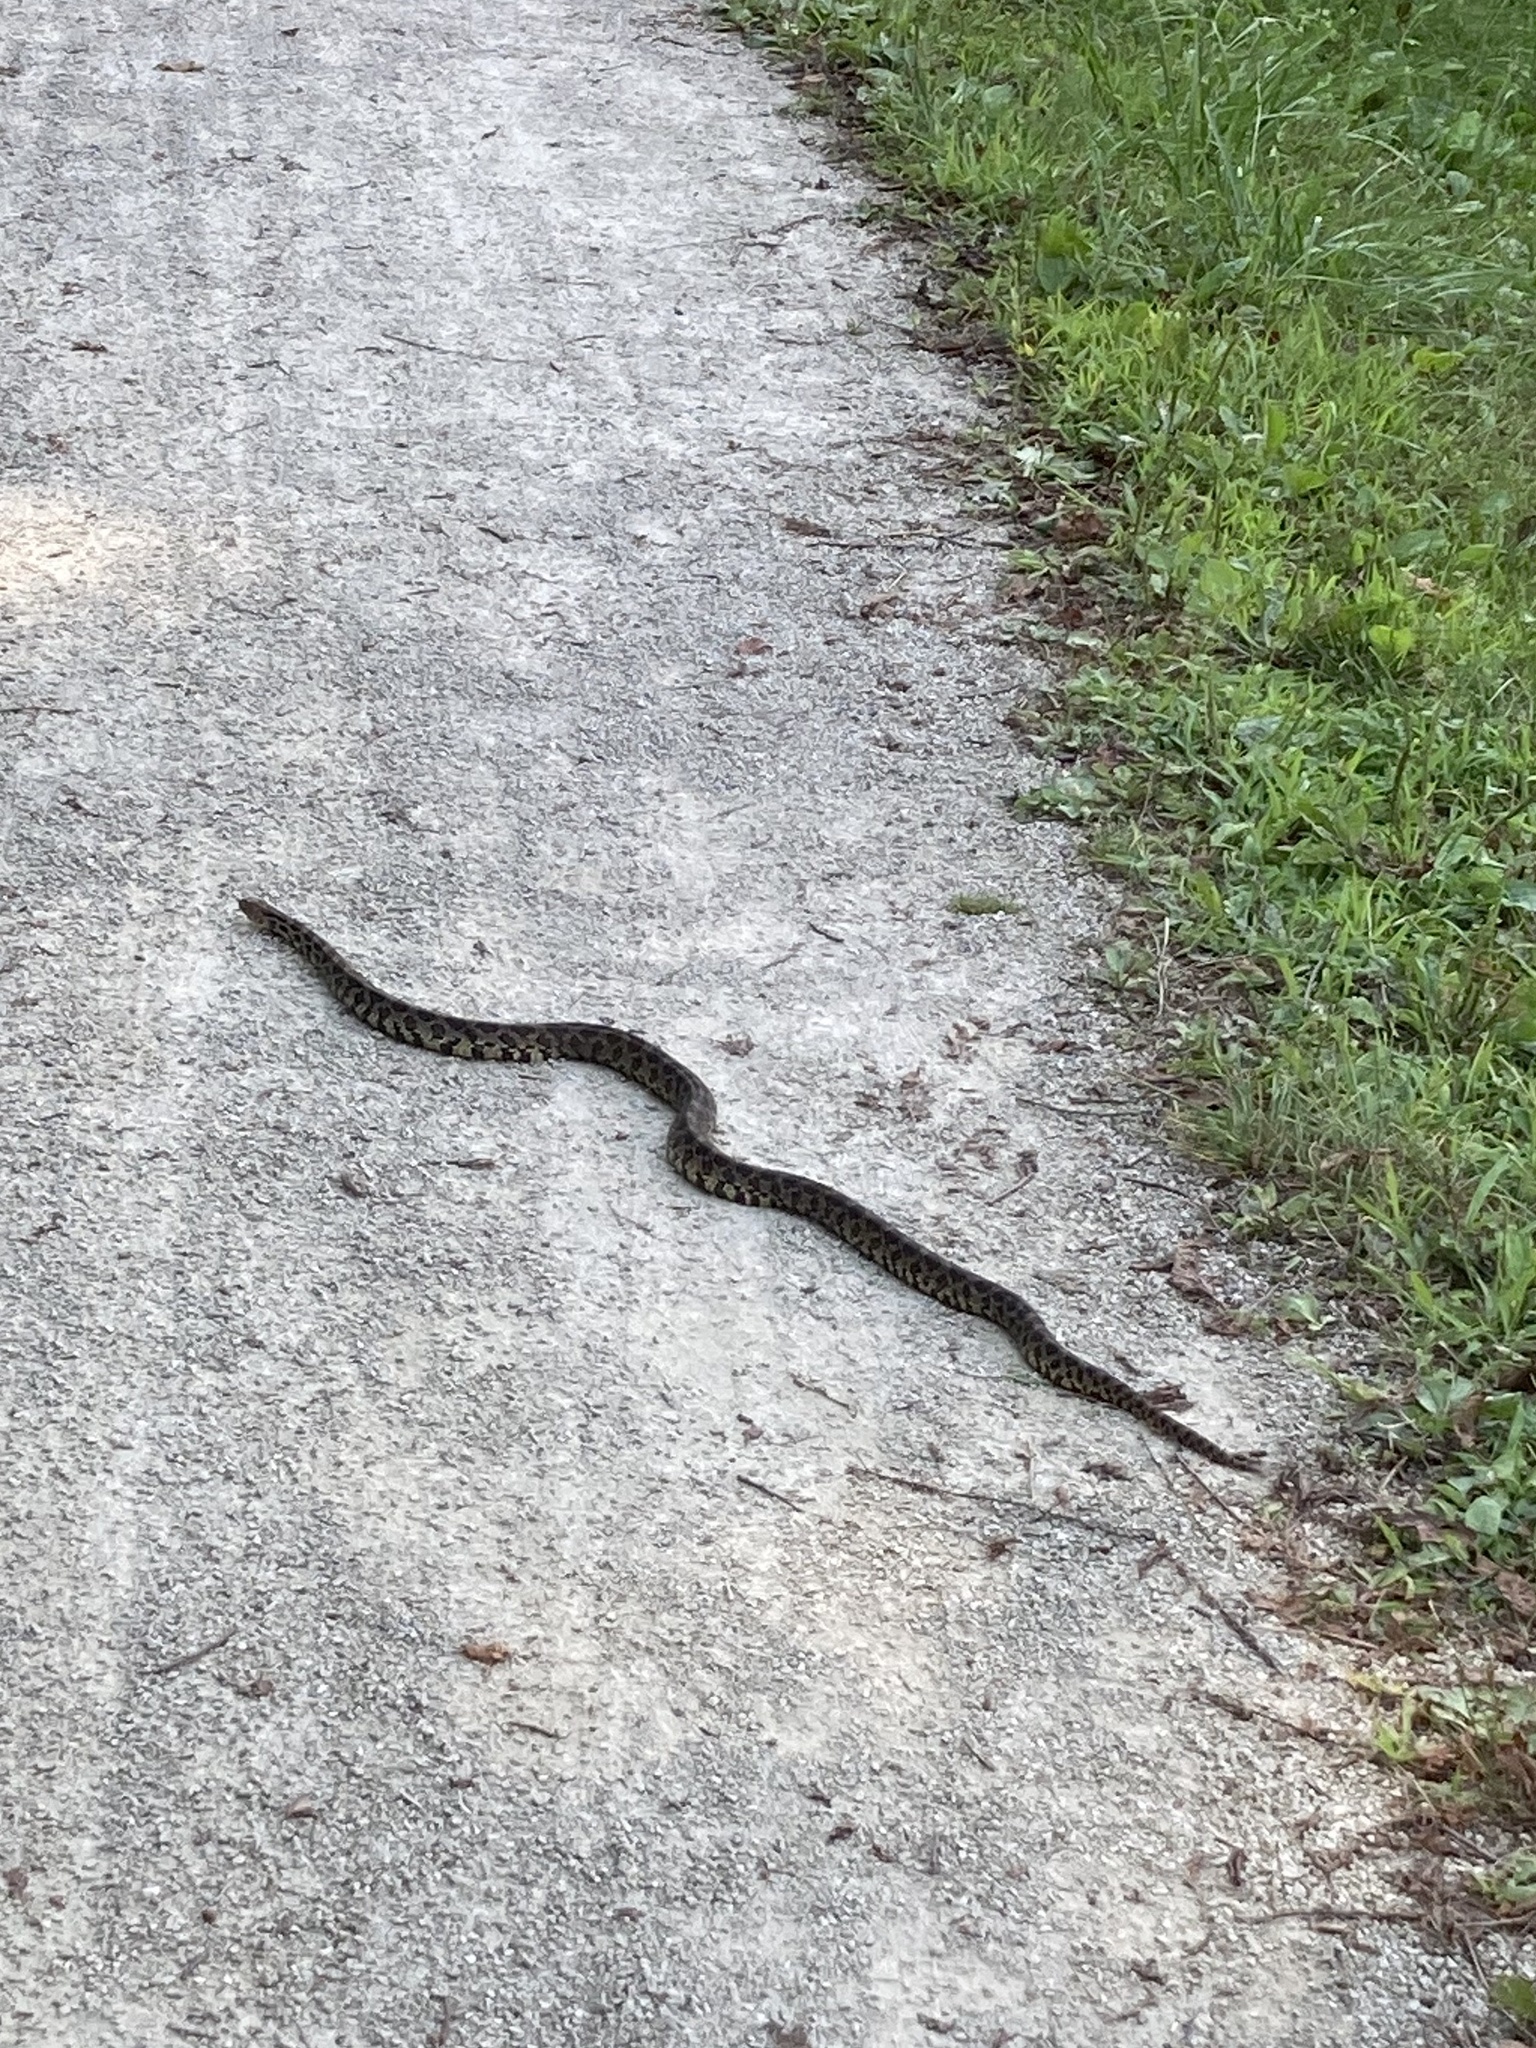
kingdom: Animalia
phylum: Chordata
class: Squamata
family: Colubridae
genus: Pantherophis
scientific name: Pantherophis vulpinus
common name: Eastern fox snake
